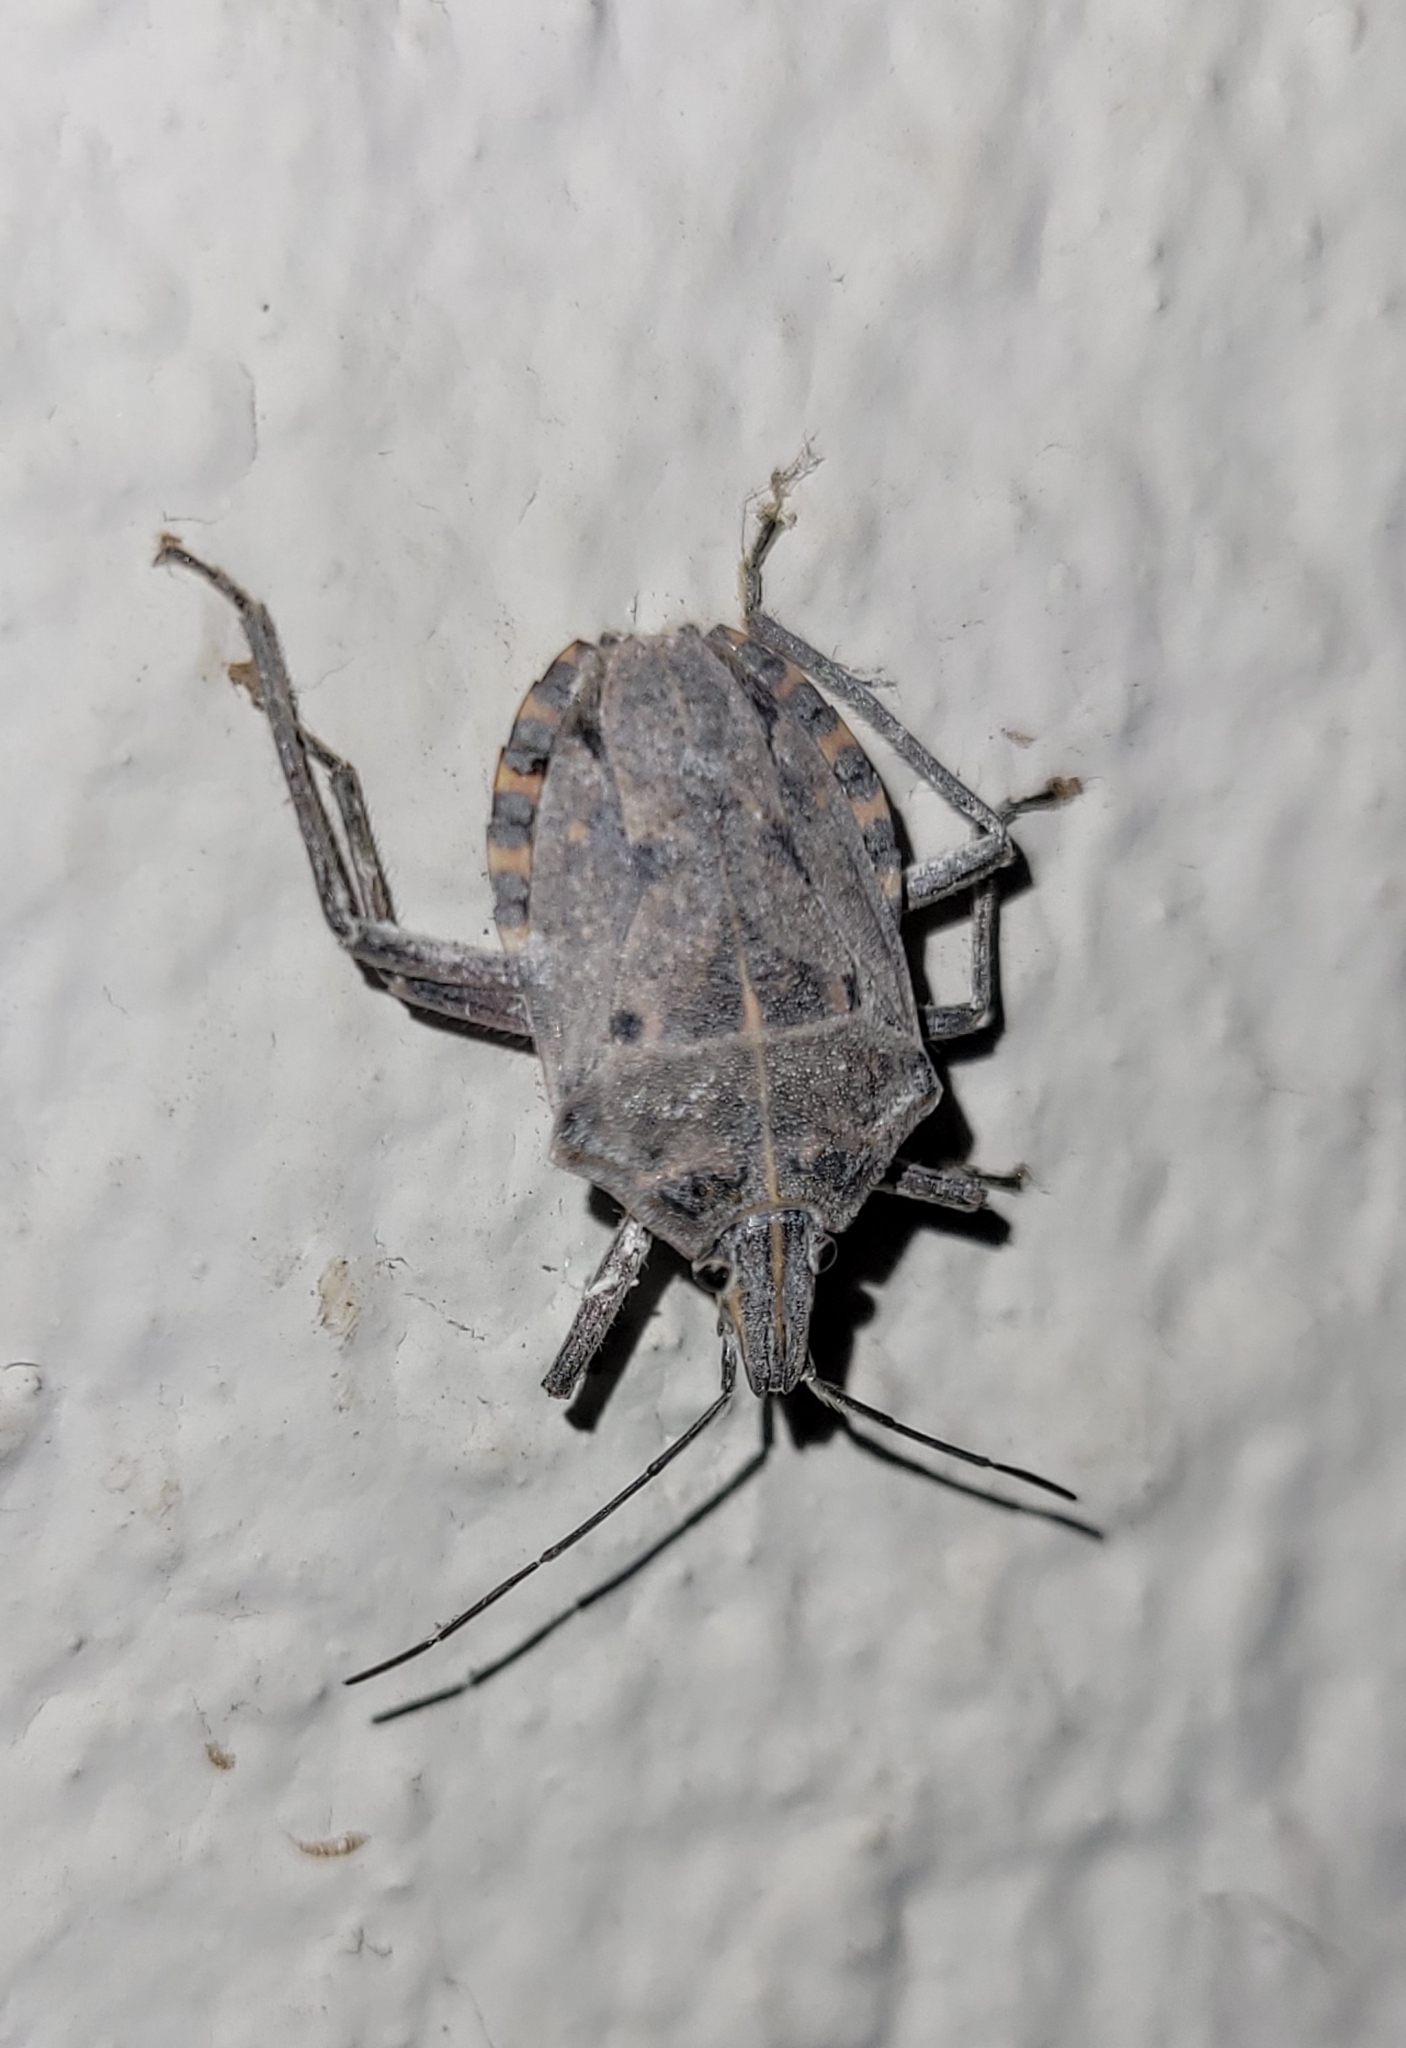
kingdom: Animalia
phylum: Arthropoda
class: Insecta
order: Hemiptera
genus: Peltasticus
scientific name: Peltasticus
